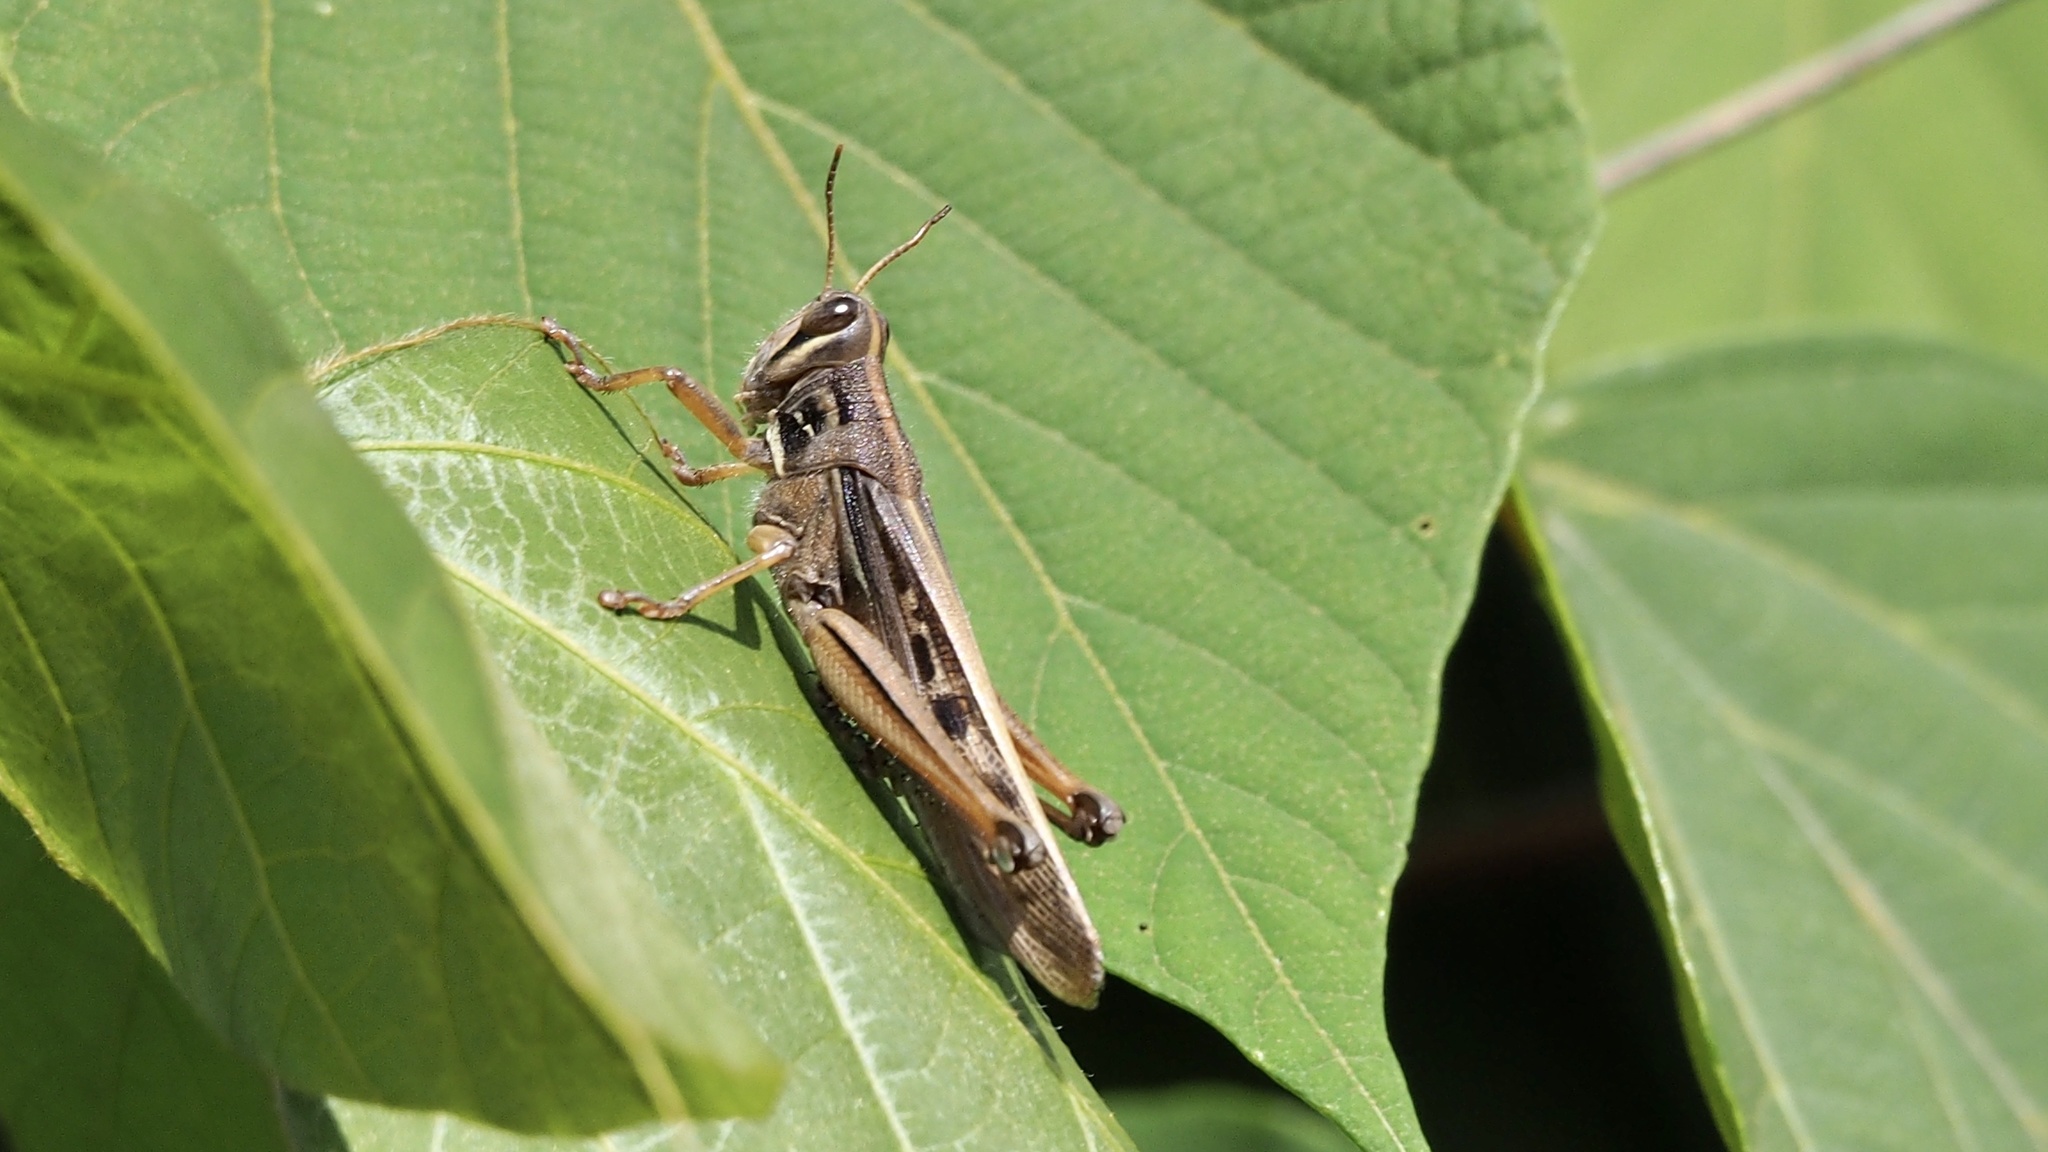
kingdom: Animalia
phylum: Arthropoda
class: Insecta
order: Orthoptera
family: Acrididae
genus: Patanga
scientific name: Patanga japonica
